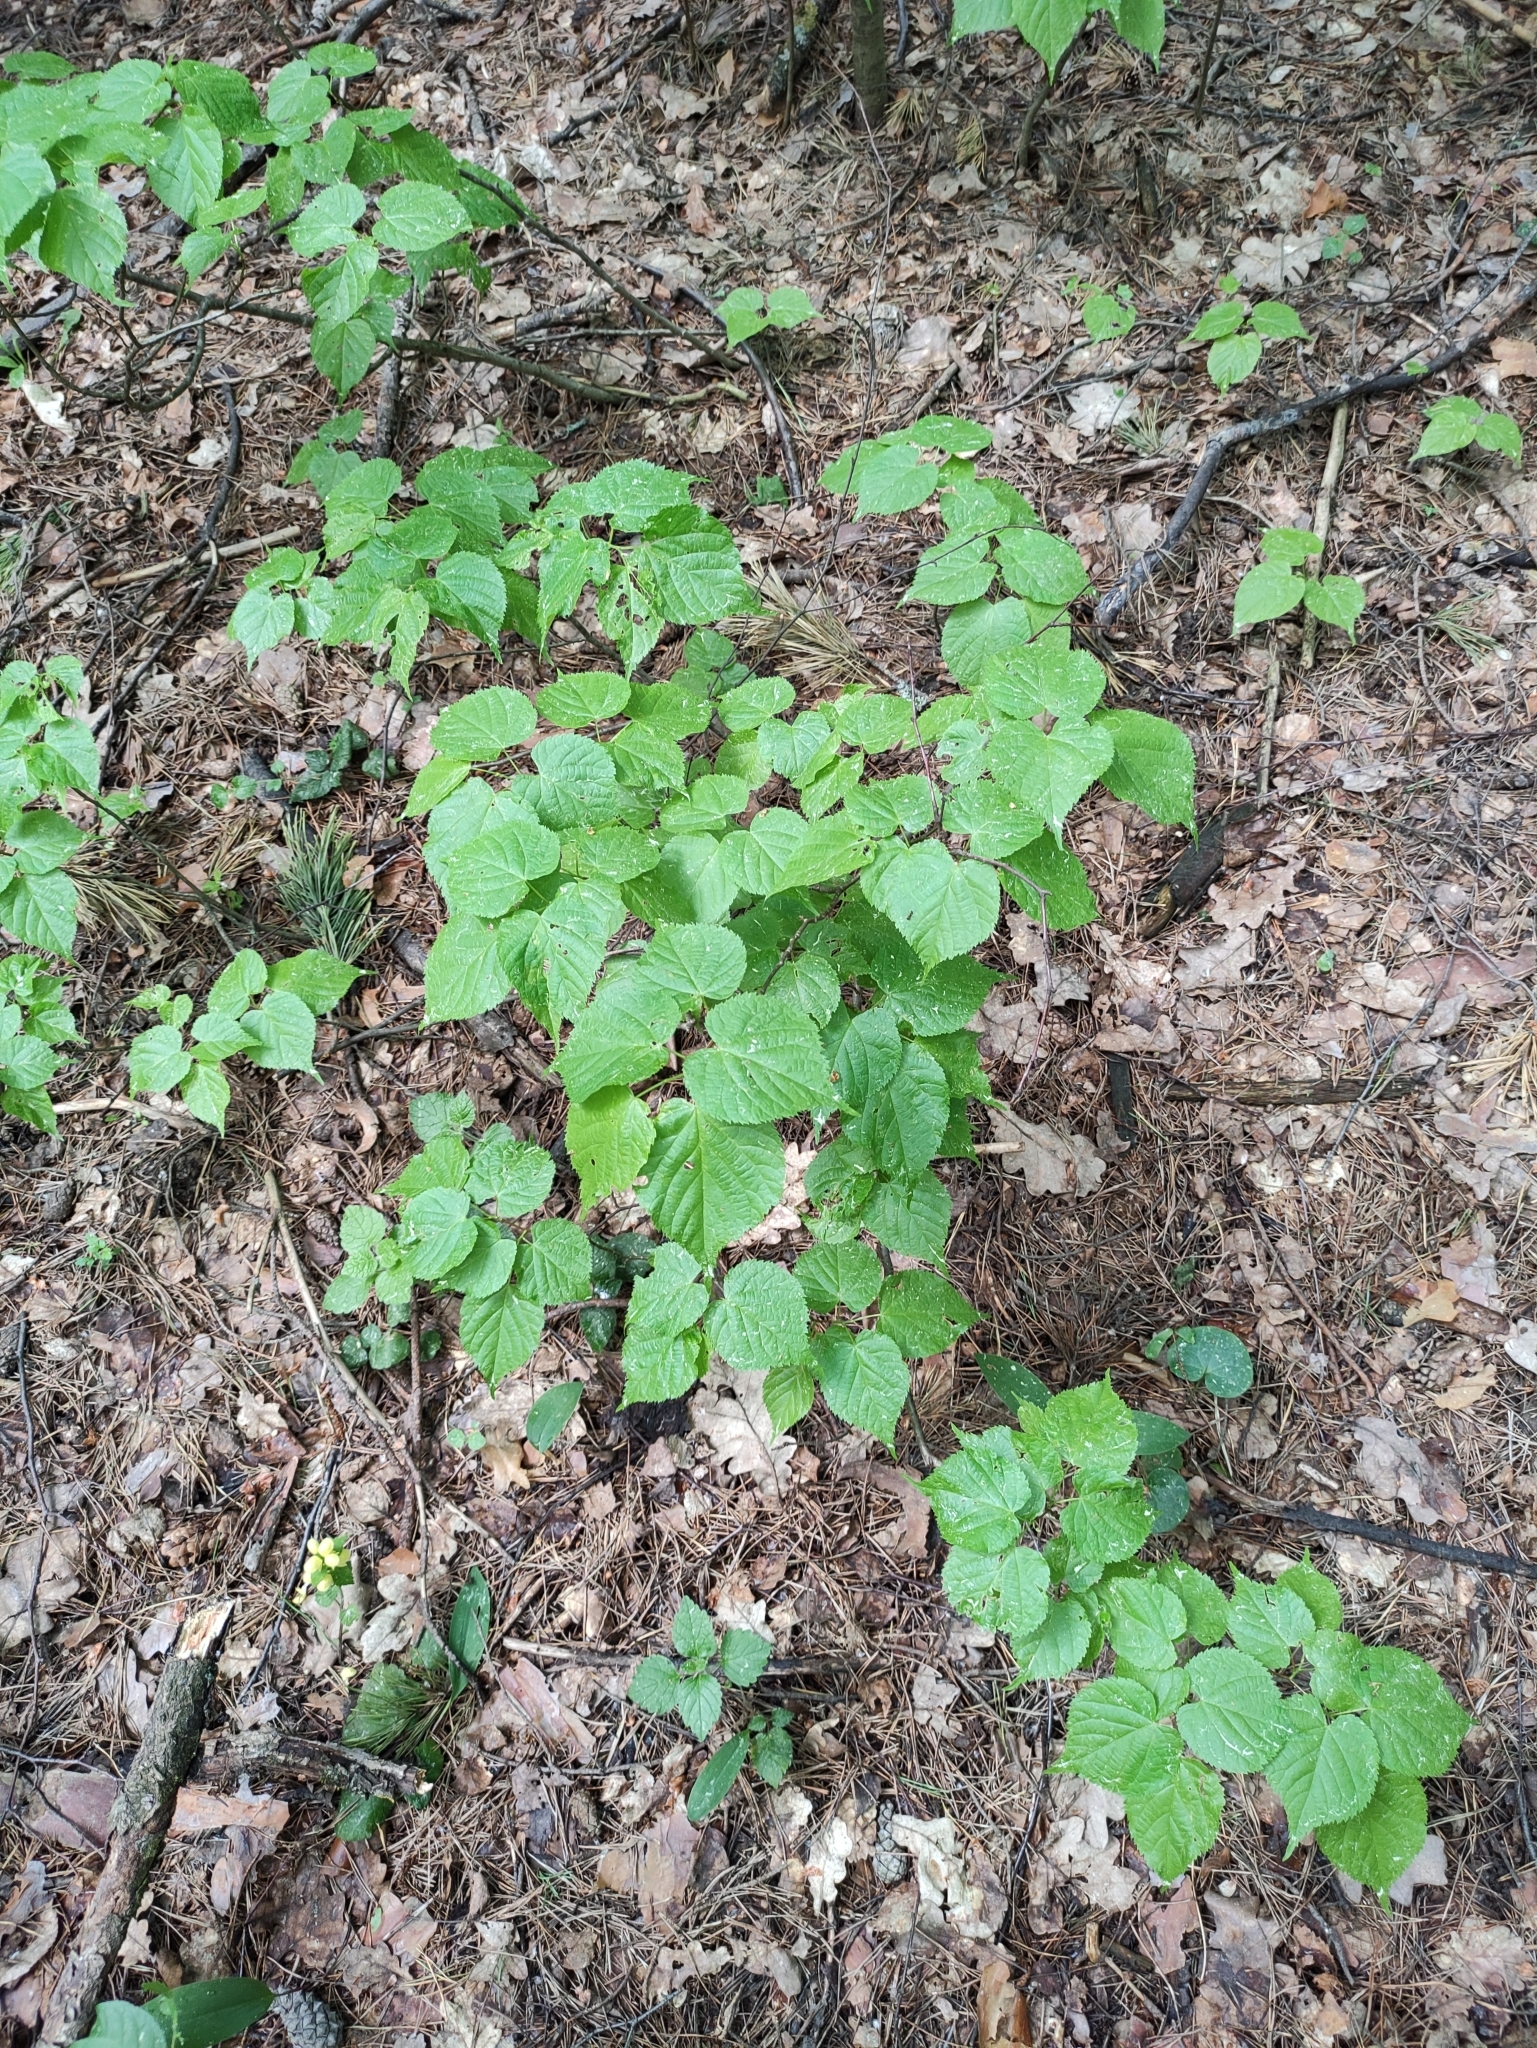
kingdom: Plantae
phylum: Tracheophyta
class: Magnoliopsida
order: Malvales
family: Malvaceae
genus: Tilia
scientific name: Tilia cordata
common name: Small-leaved lime
